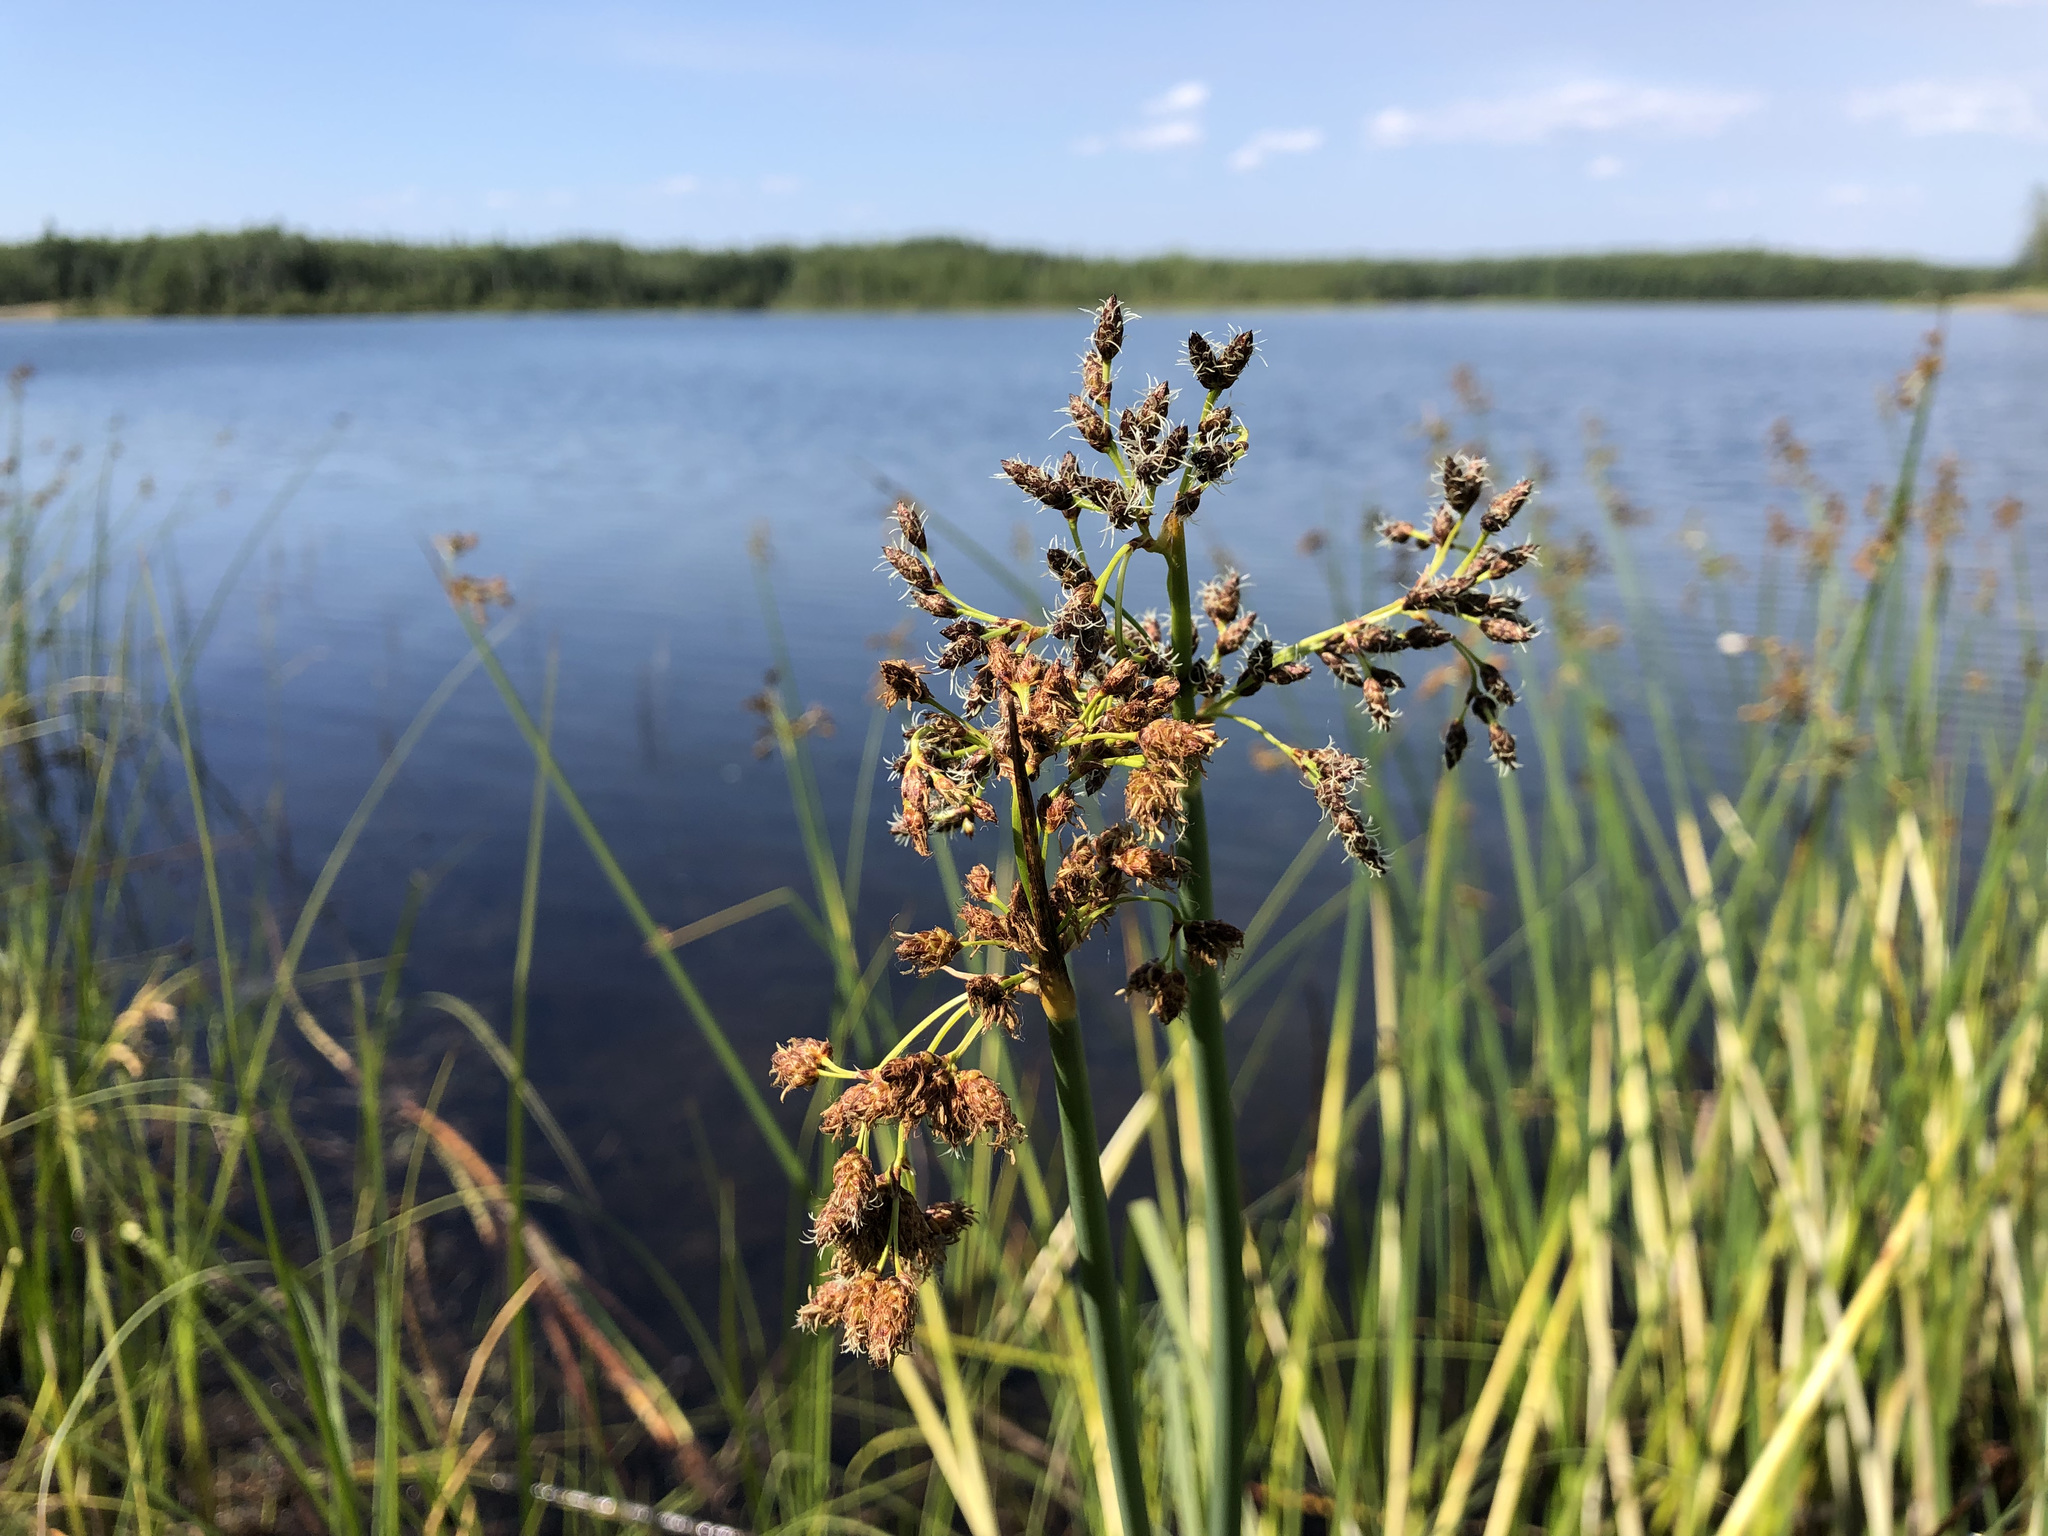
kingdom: Plantae
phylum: Tracheophyta
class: Liliopsida
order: Poales
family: Cyperaceae
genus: Schoenoplectus
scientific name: Schoenoplectus tabernaemontani
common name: Grey club-rush
